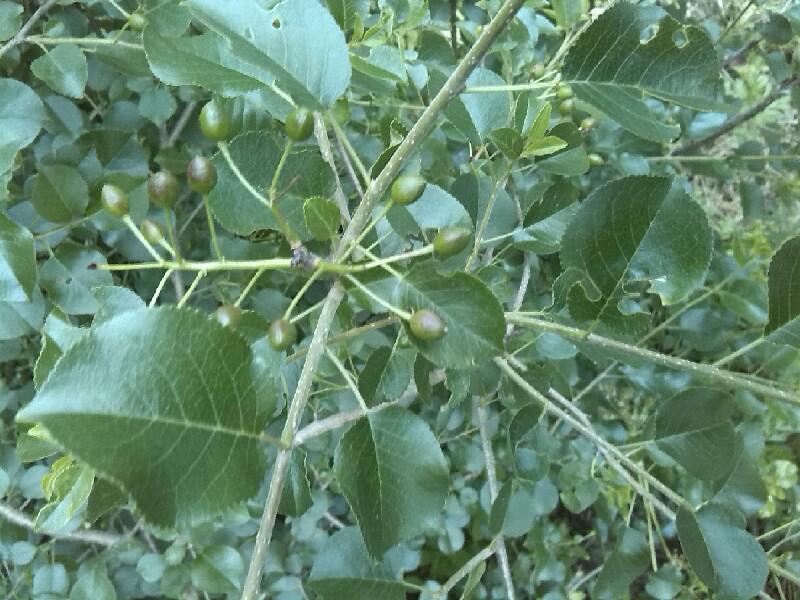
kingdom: Plantae
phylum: Tracheophyta
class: Magnoliopsida
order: Rosales
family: Rosaceae
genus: Prunus
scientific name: Prunus mahaleb
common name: Mahaleb cherry
